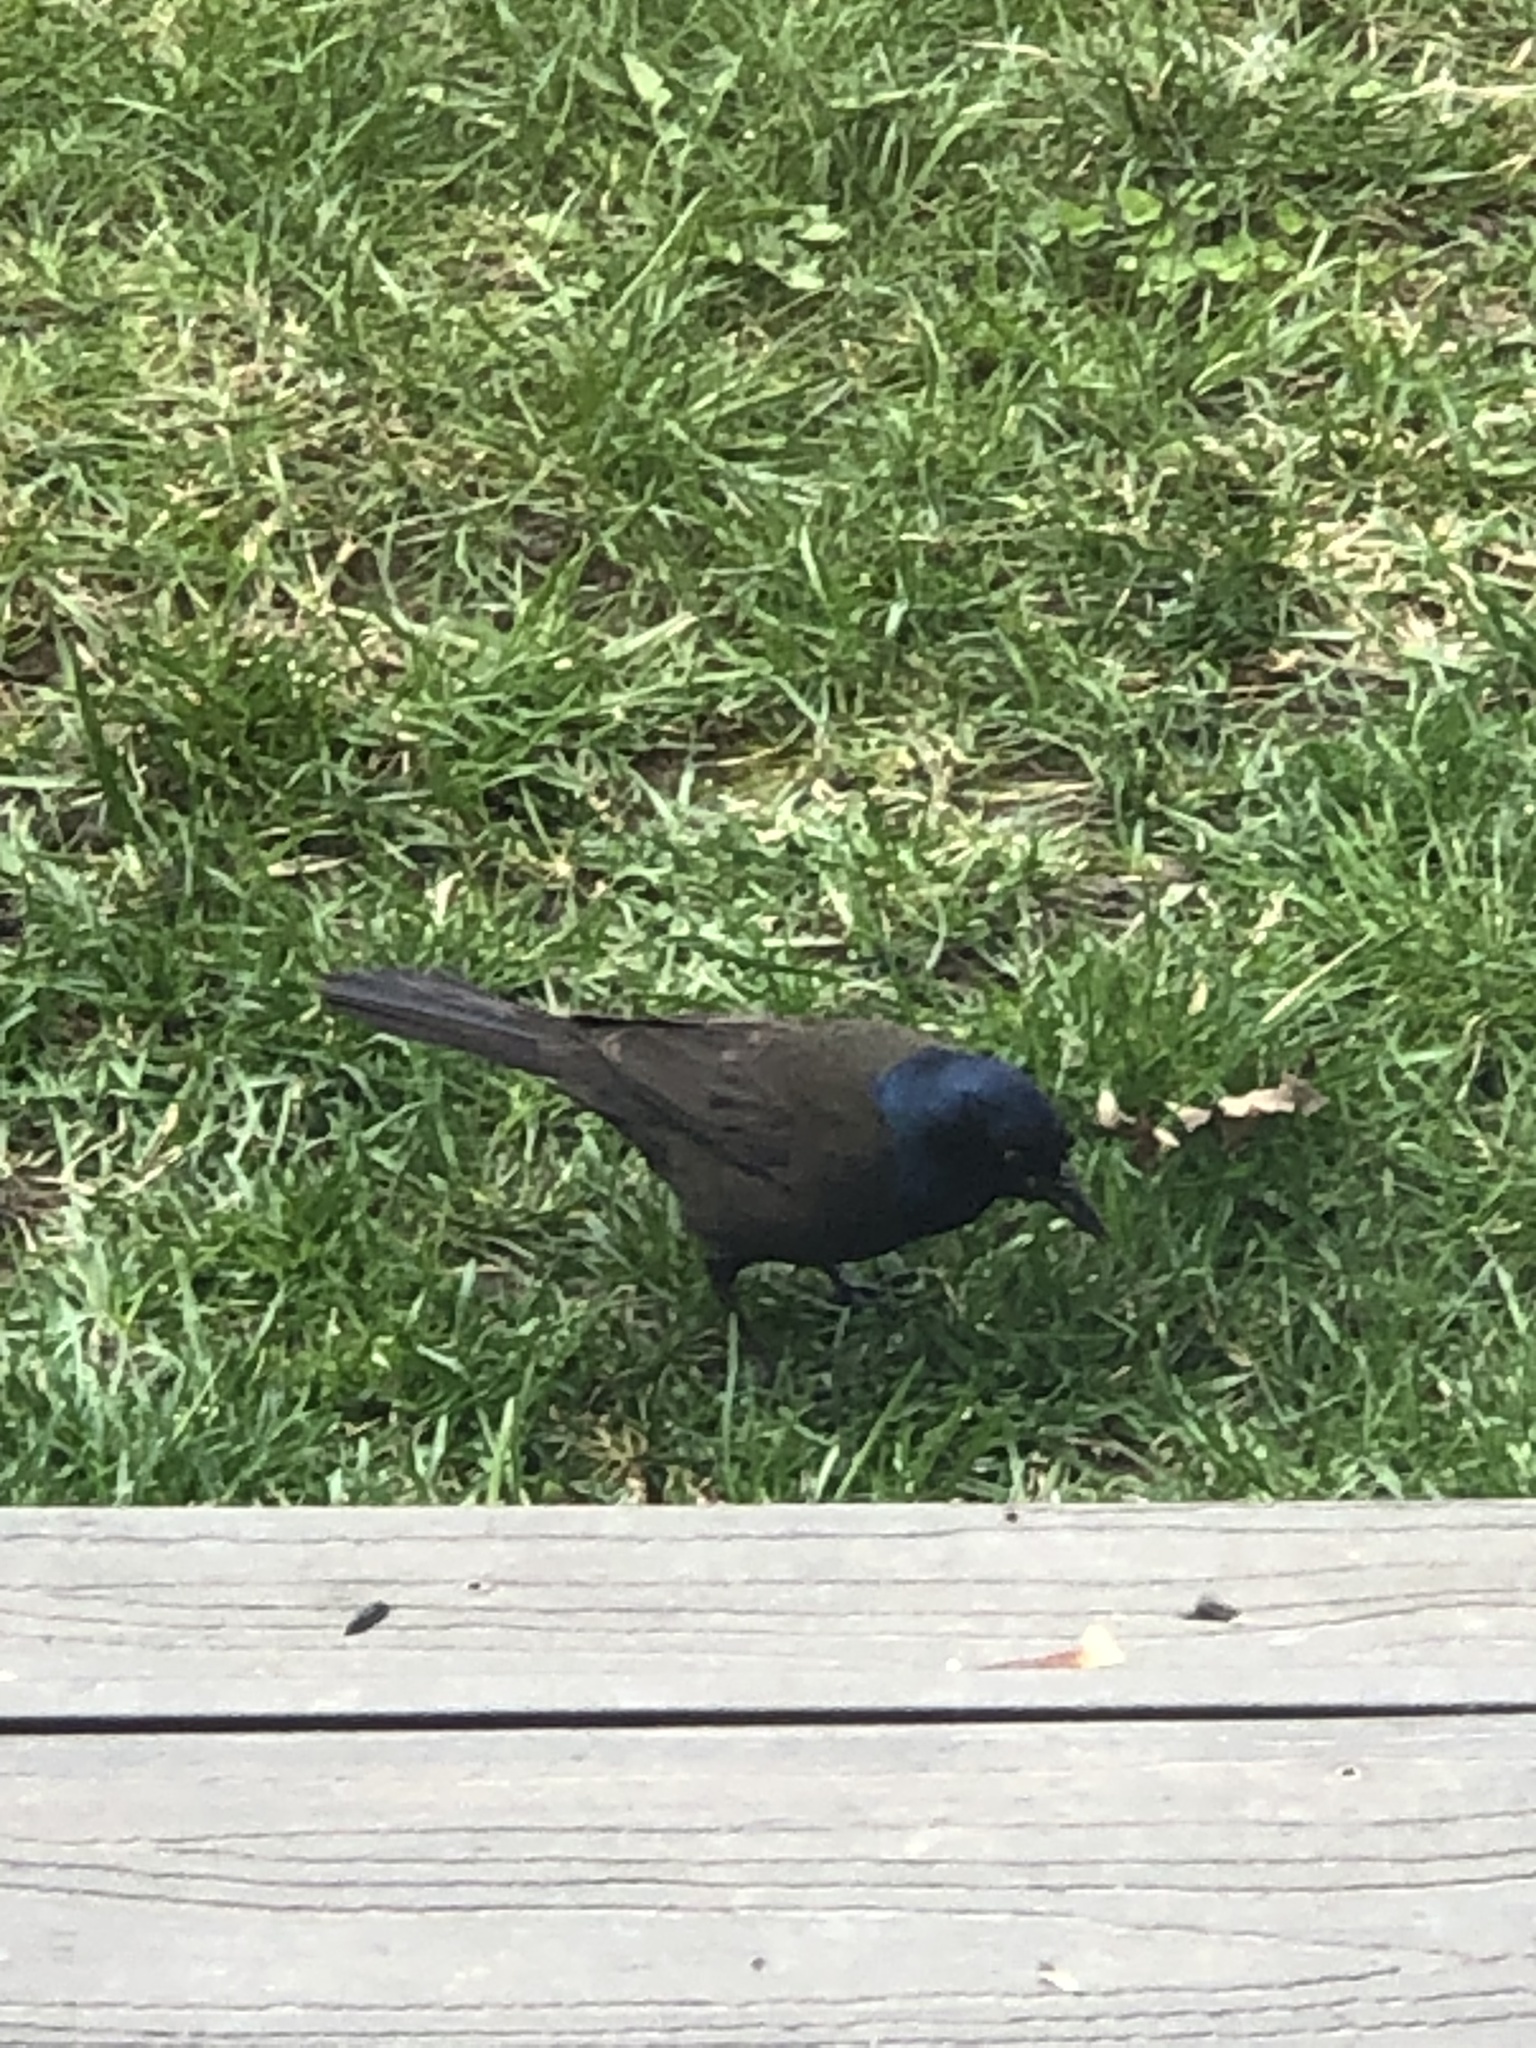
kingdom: Animalia
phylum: Chordata
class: Aves
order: Passeriformes
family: Icteridae
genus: Quiscalus
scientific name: Quiscalus quiscula
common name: Common grackle
